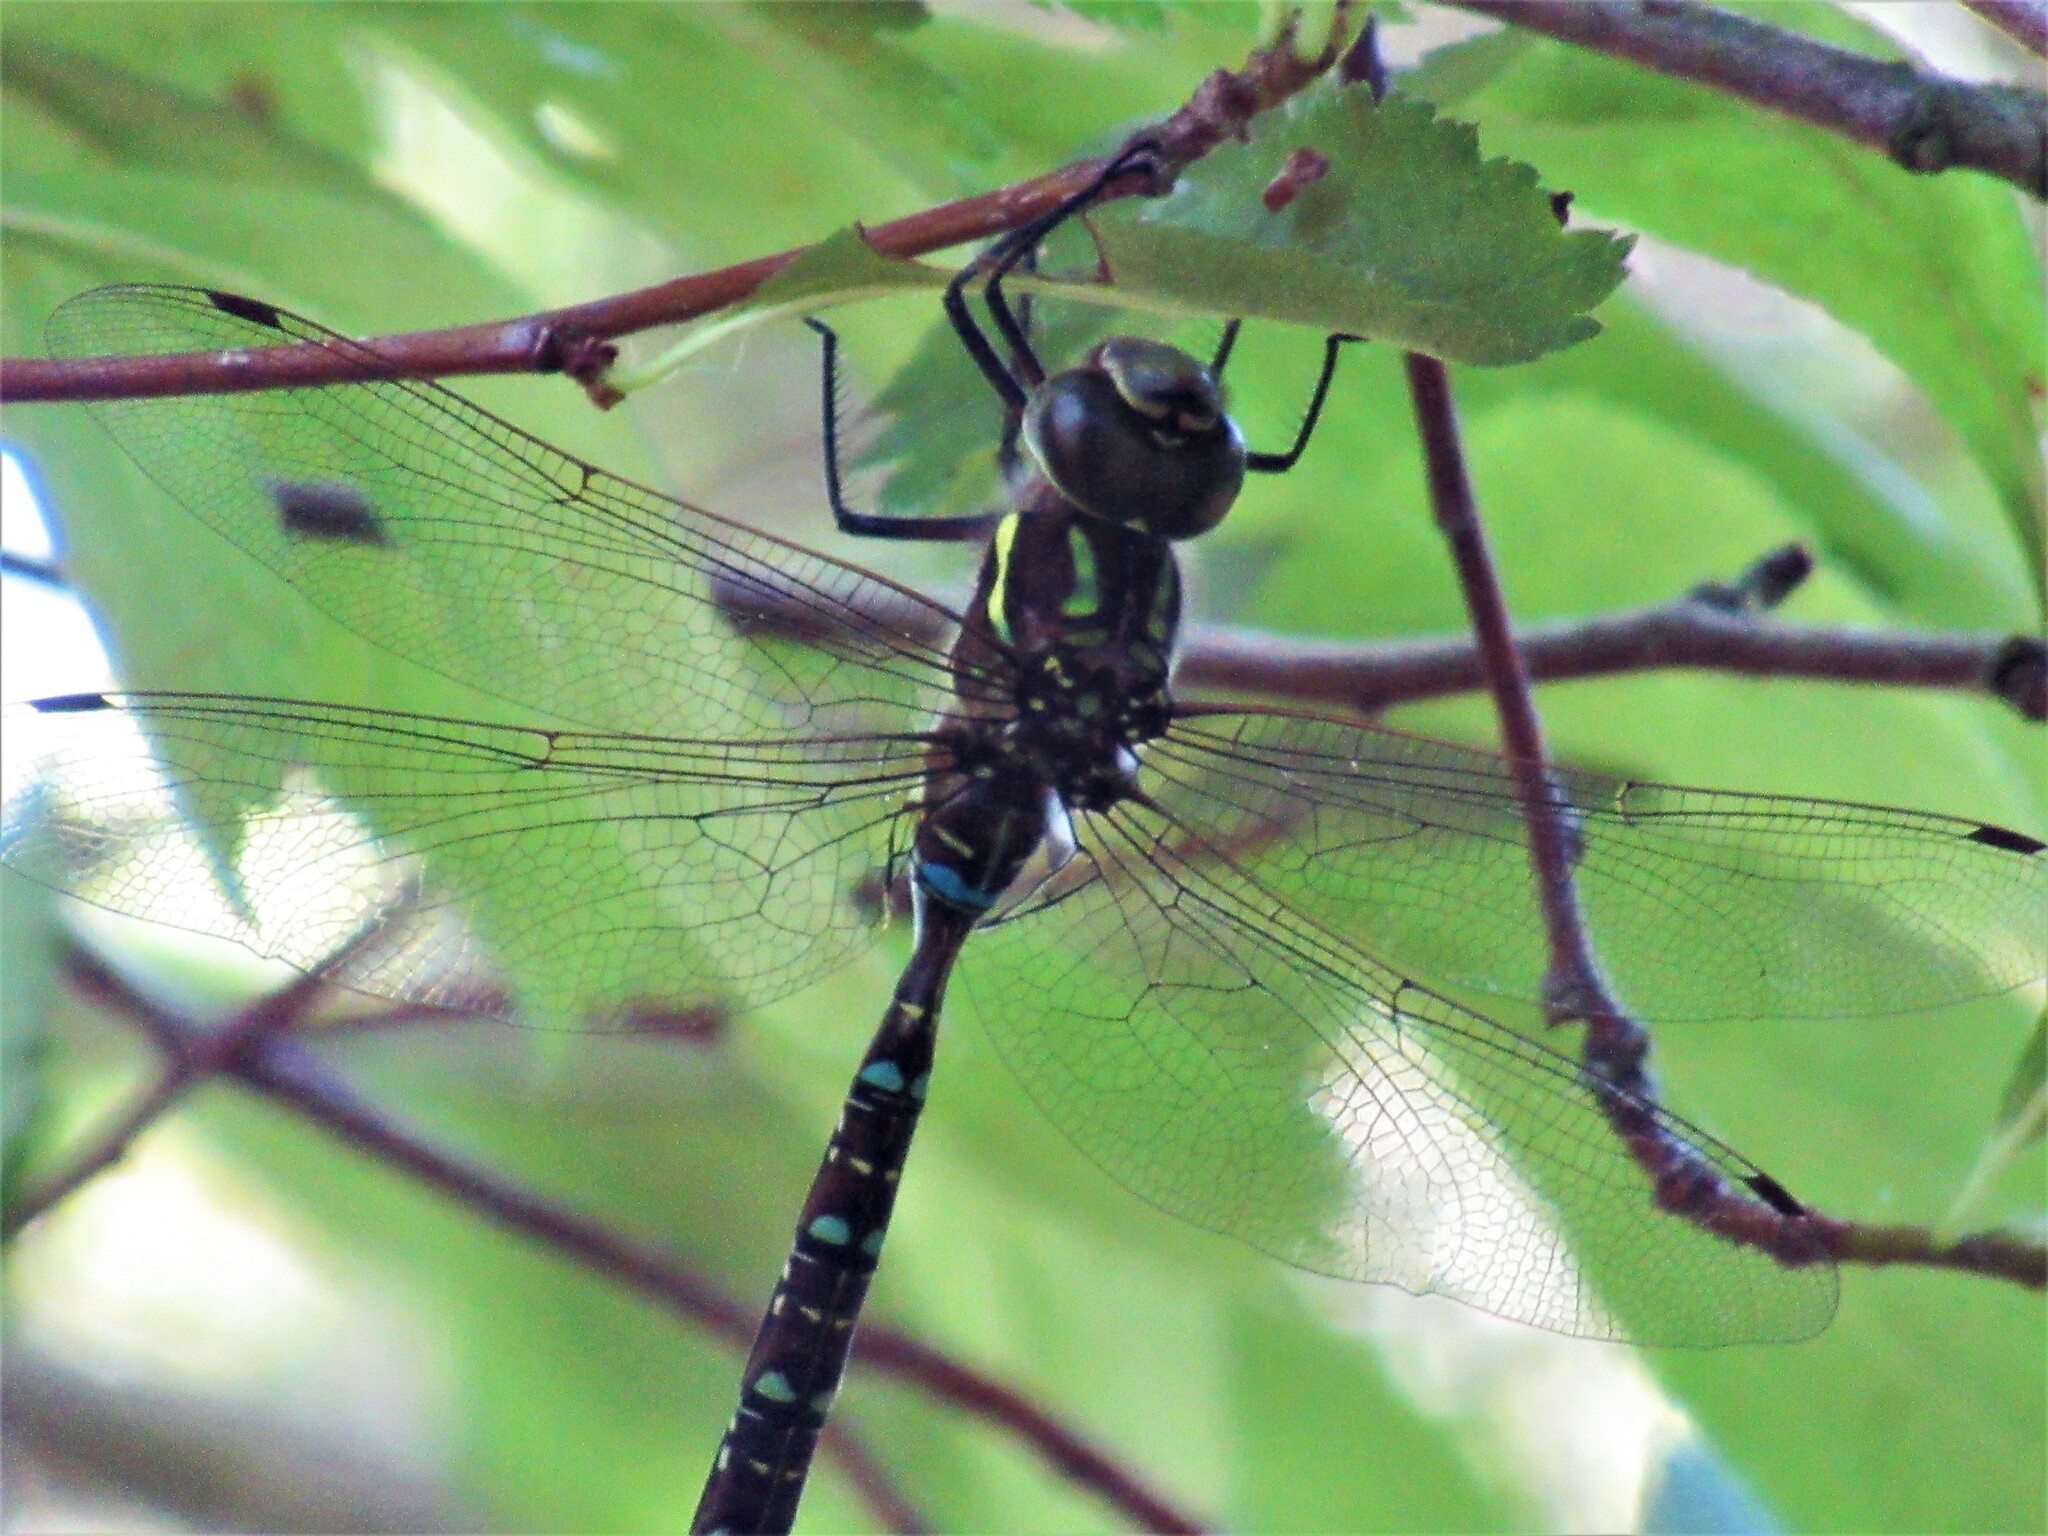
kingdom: Animalia
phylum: Arthropoda
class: Insecta
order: Odonata
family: Aeshnidae
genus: Aeshna
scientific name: Aeshna umbrosa
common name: Shadow darner
